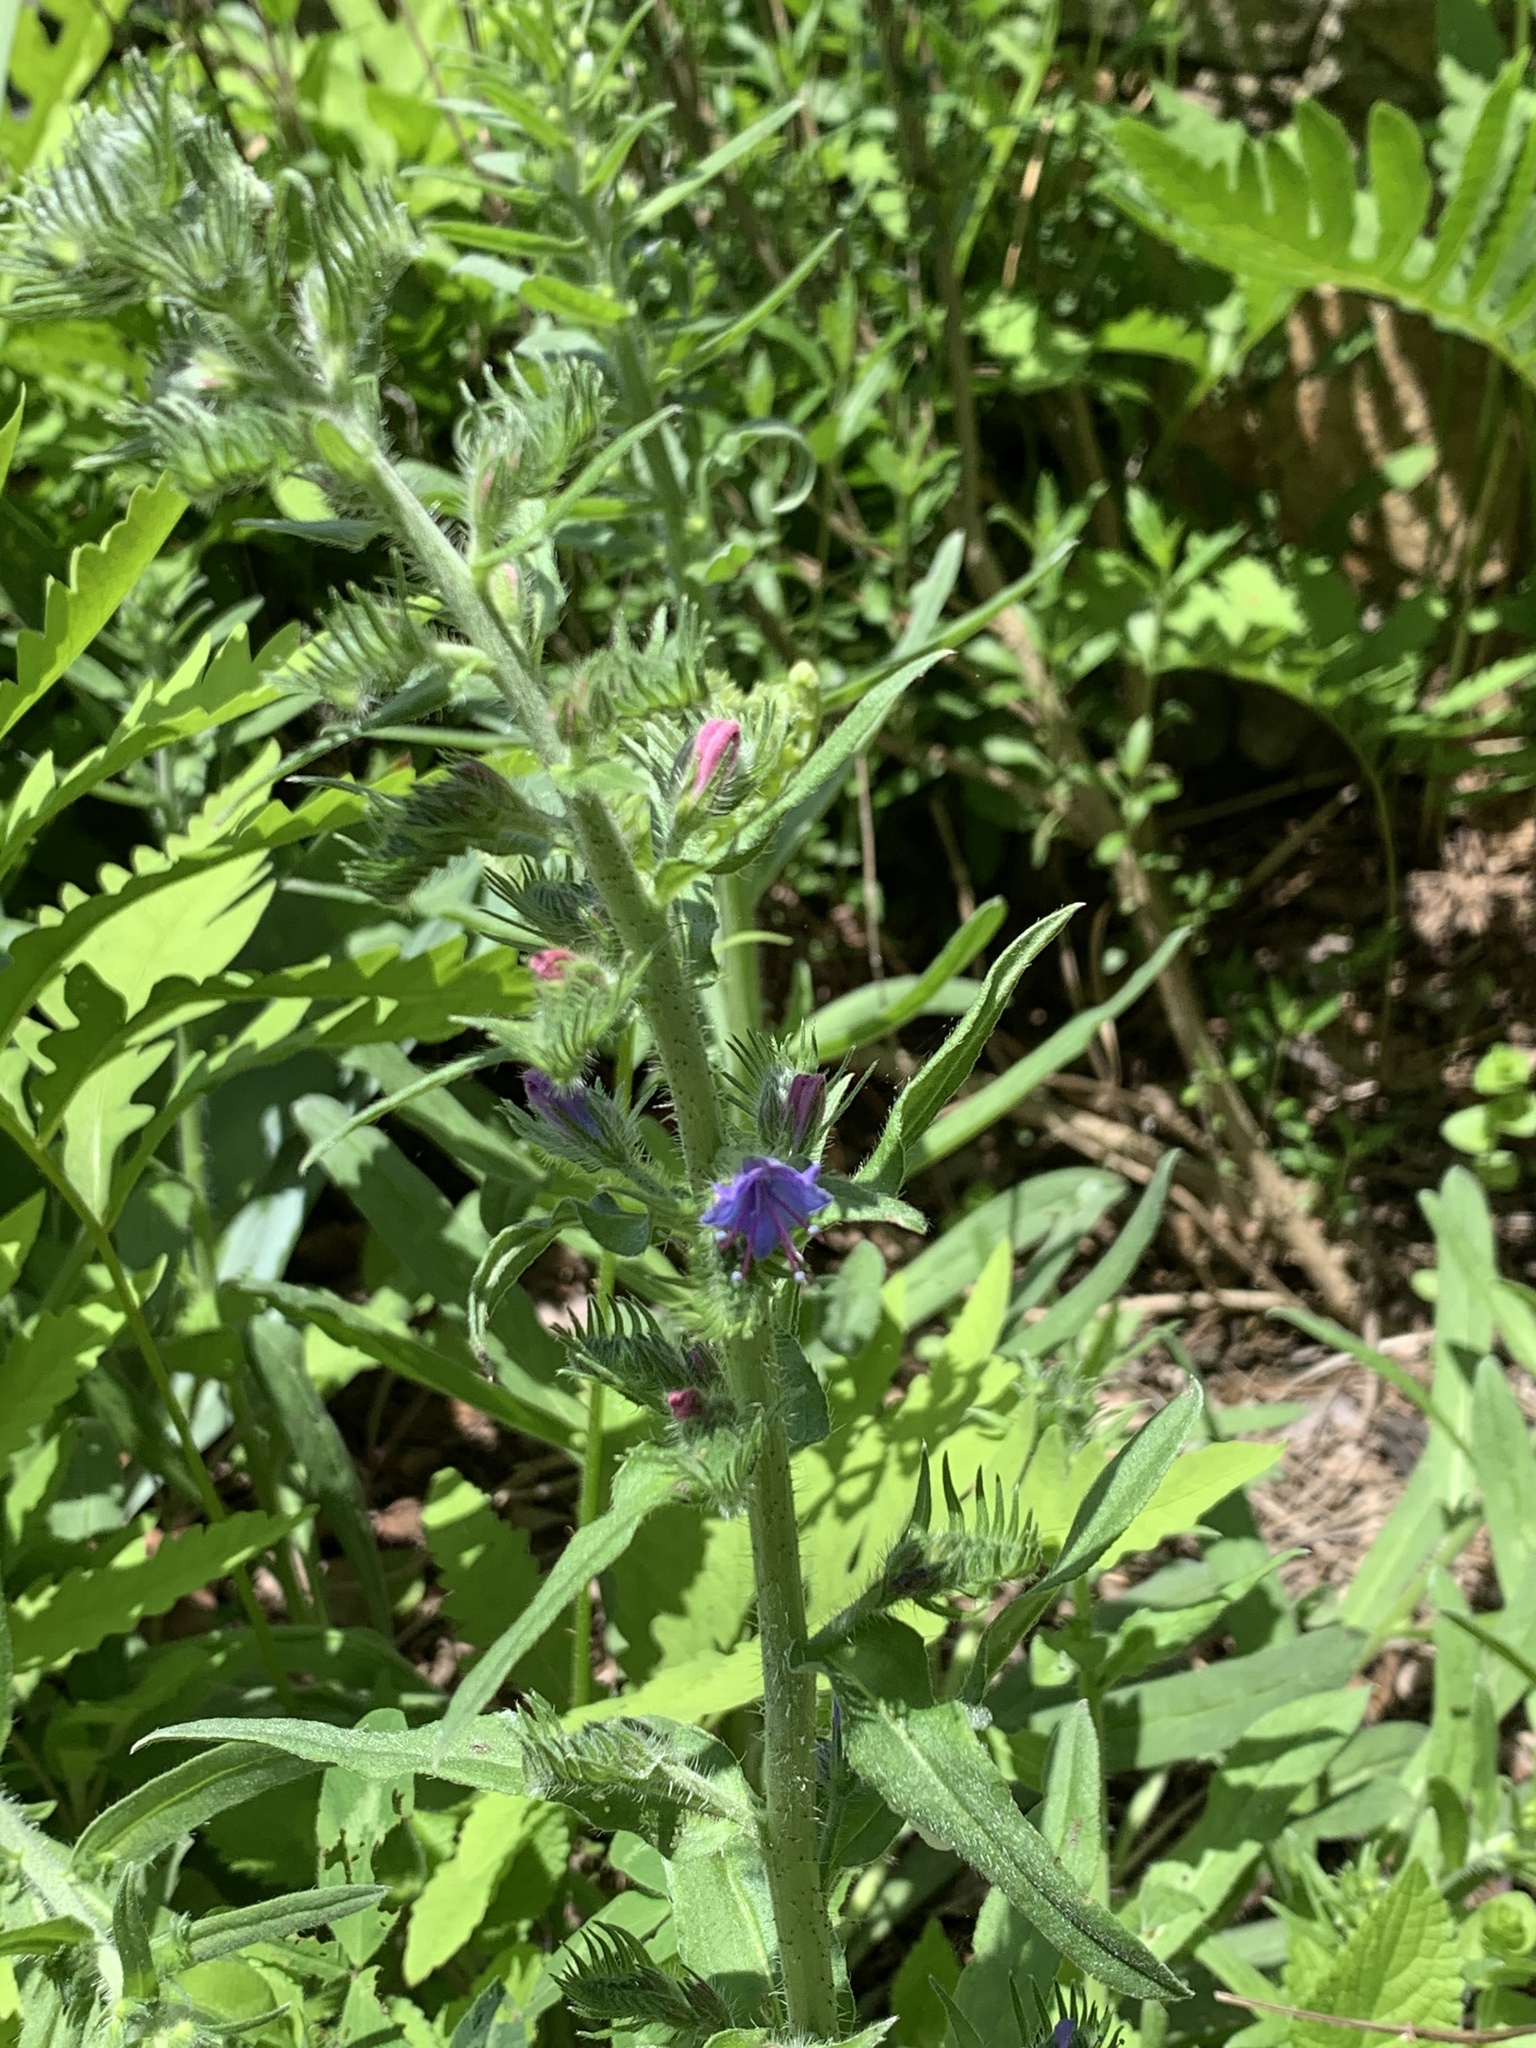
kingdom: Plantae
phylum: Tracheophyta
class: Magnoliopsida
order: Boraginales
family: Boraginaceae
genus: Echium
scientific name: Echium vulgare
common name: Common viper's bugloss
